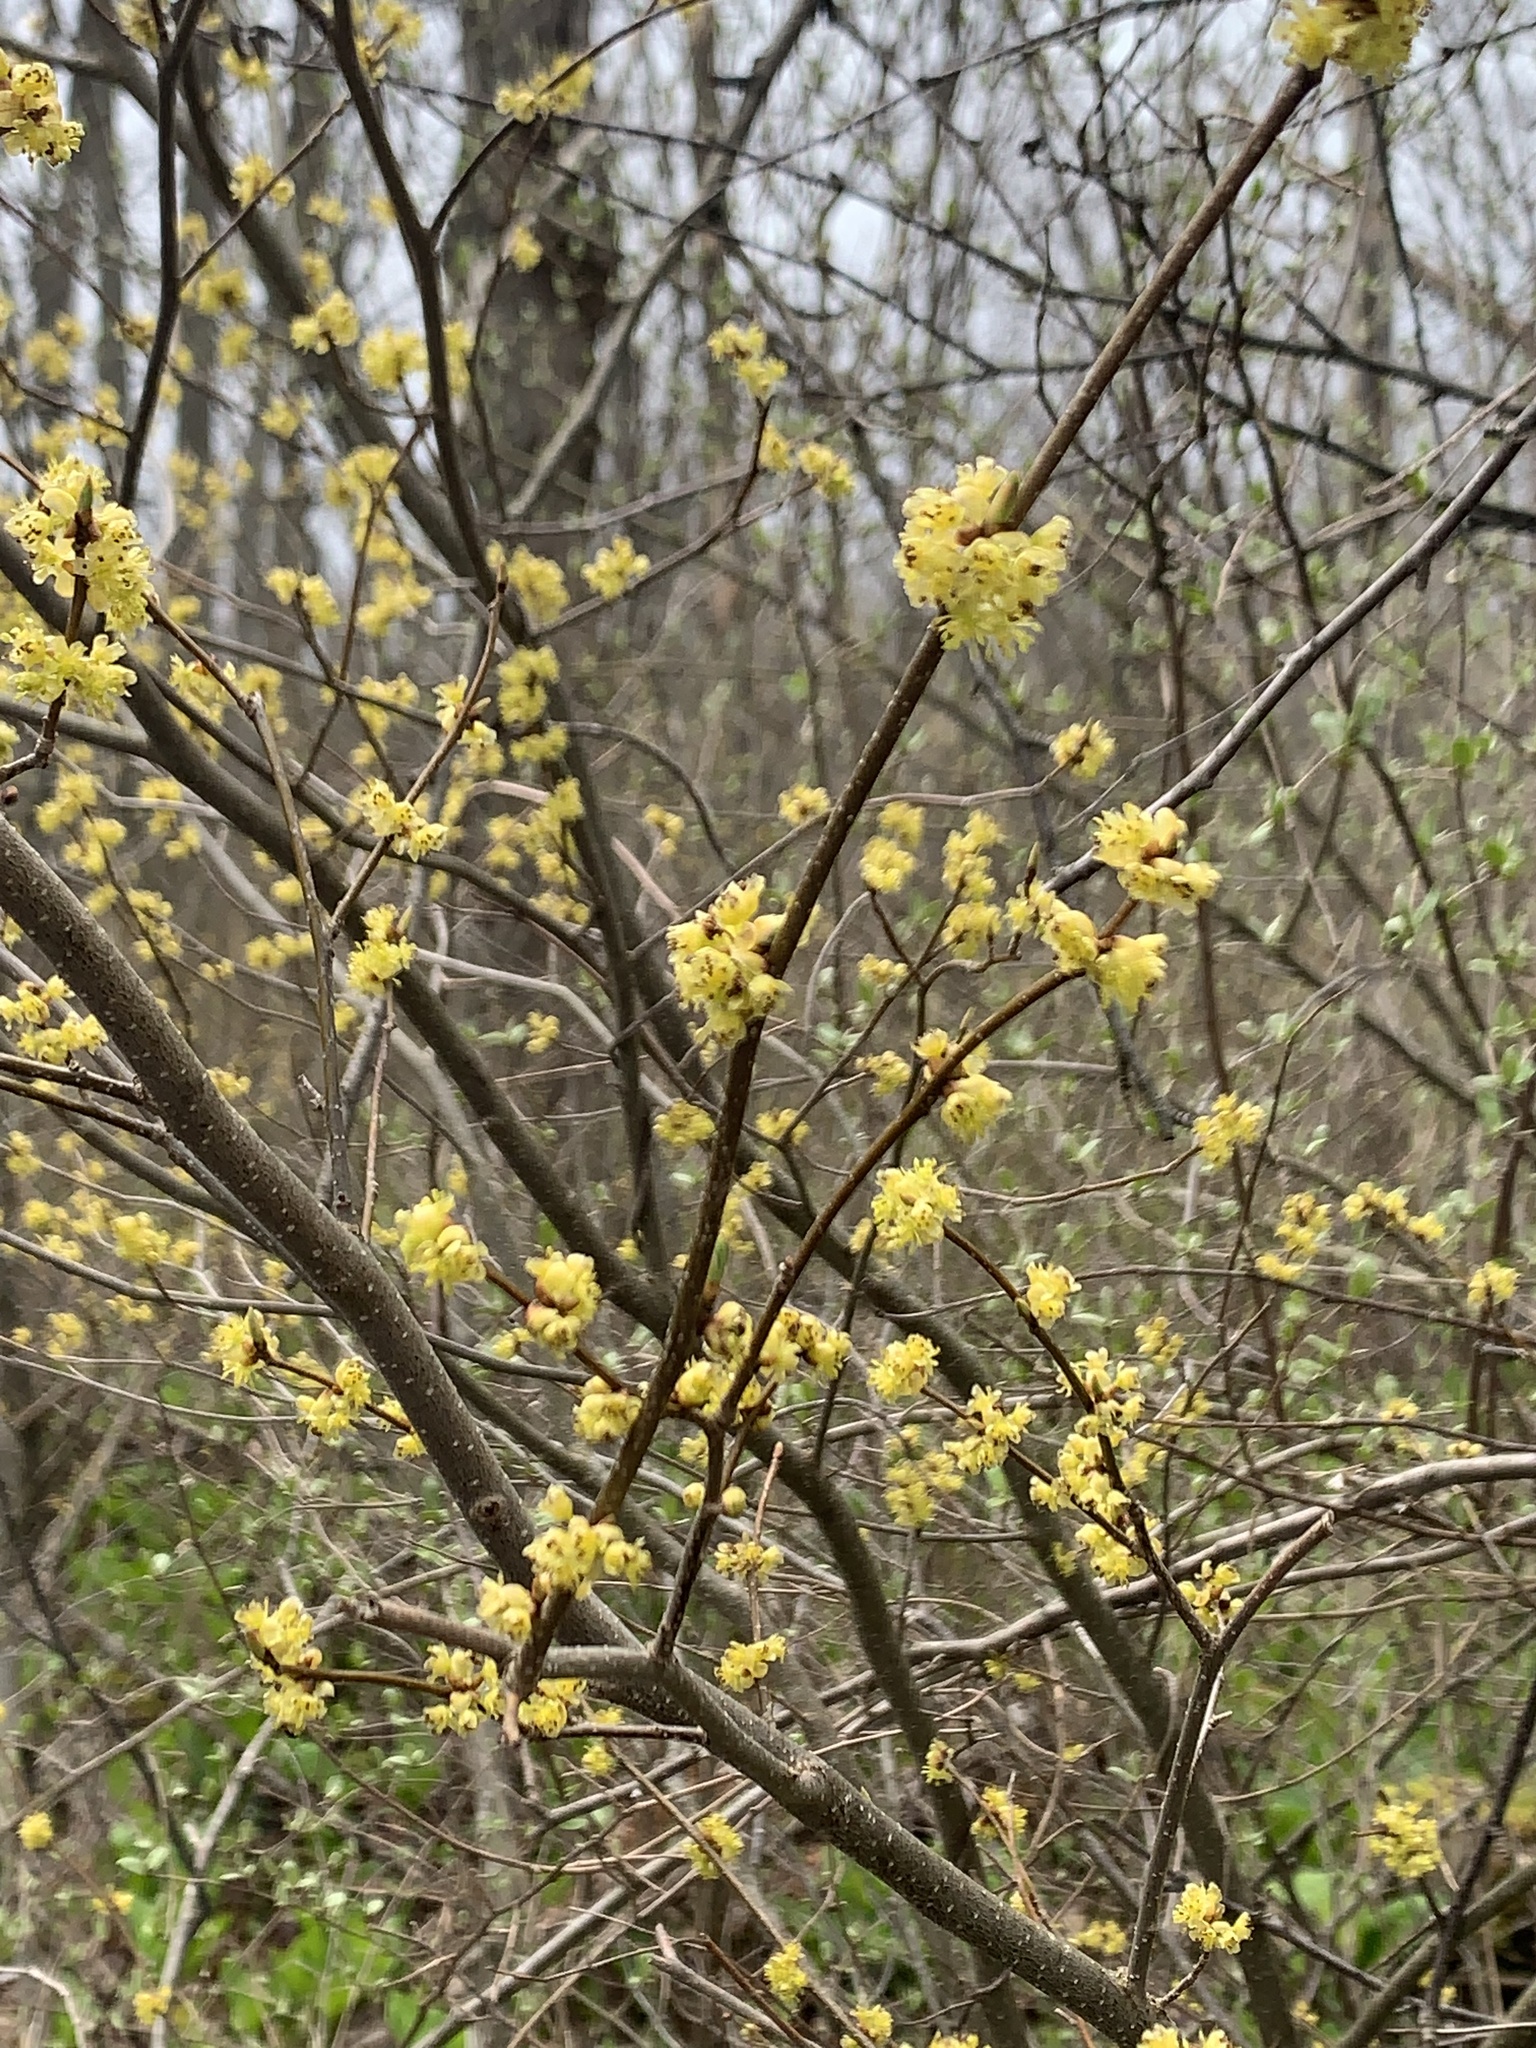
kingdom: Plantae
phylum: Tracheophyta
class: Magnoliopsida
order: Laurales
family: Lauraceae
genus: Lindera
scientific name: Lindera benzoin
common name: Spicebush
